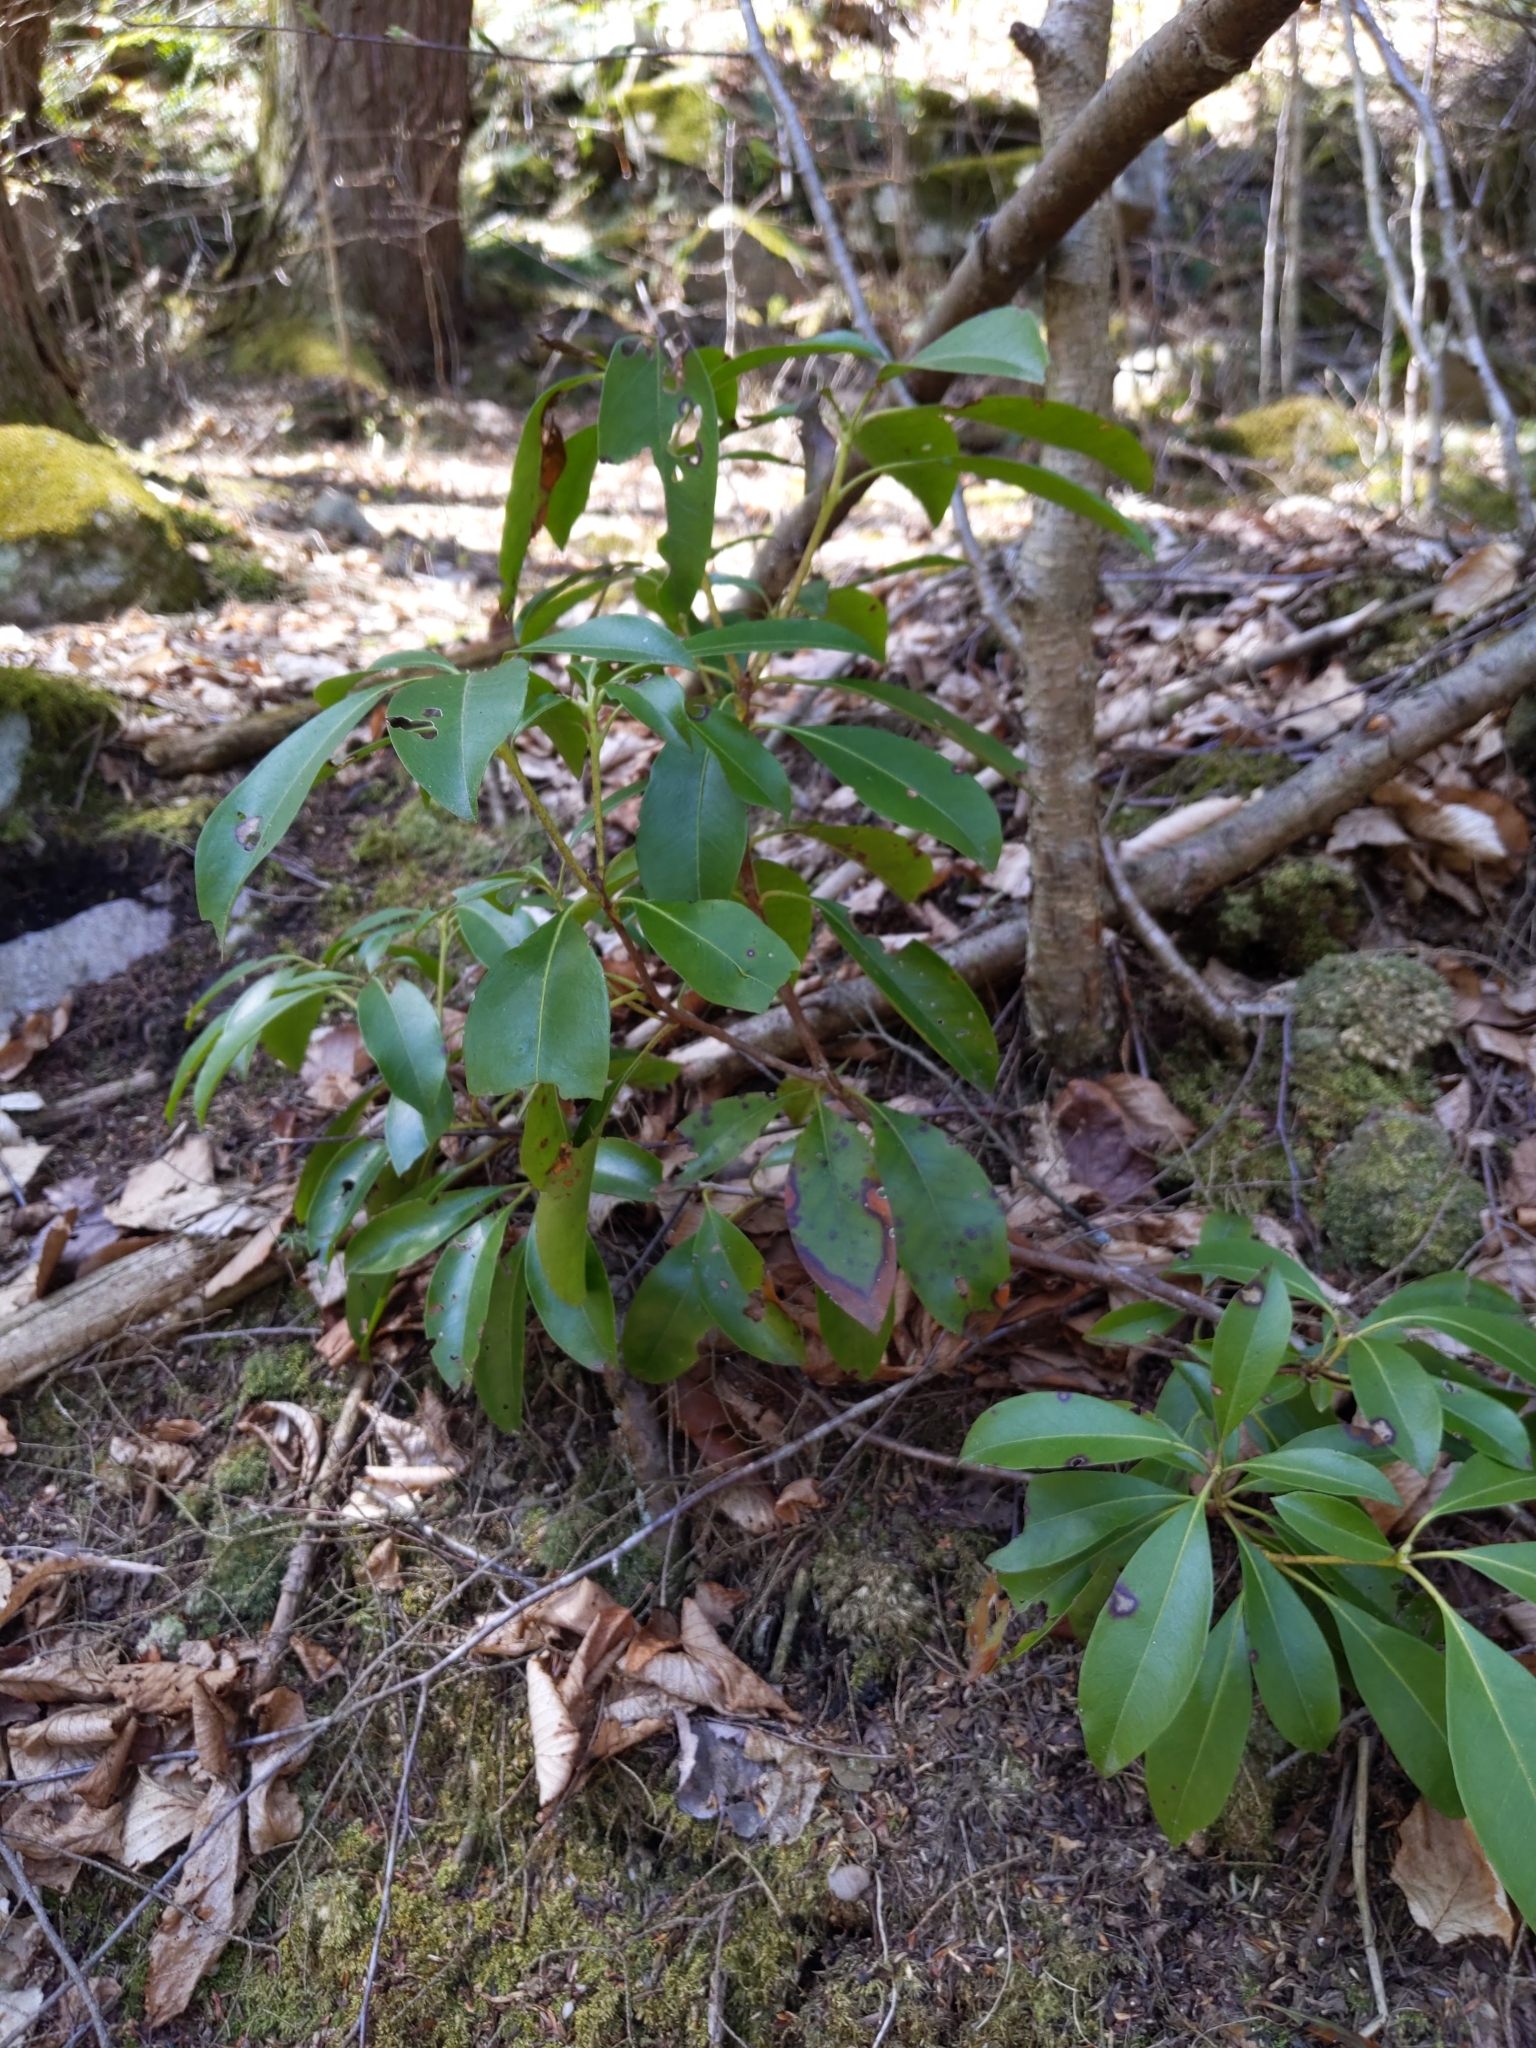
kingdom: Plantae
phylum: Tracheophyta
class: Magnoliopsida
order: Ericales
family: Ericaceae
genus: Kalmia
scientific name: Kalmia latifolia
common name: Mountain-laurel
